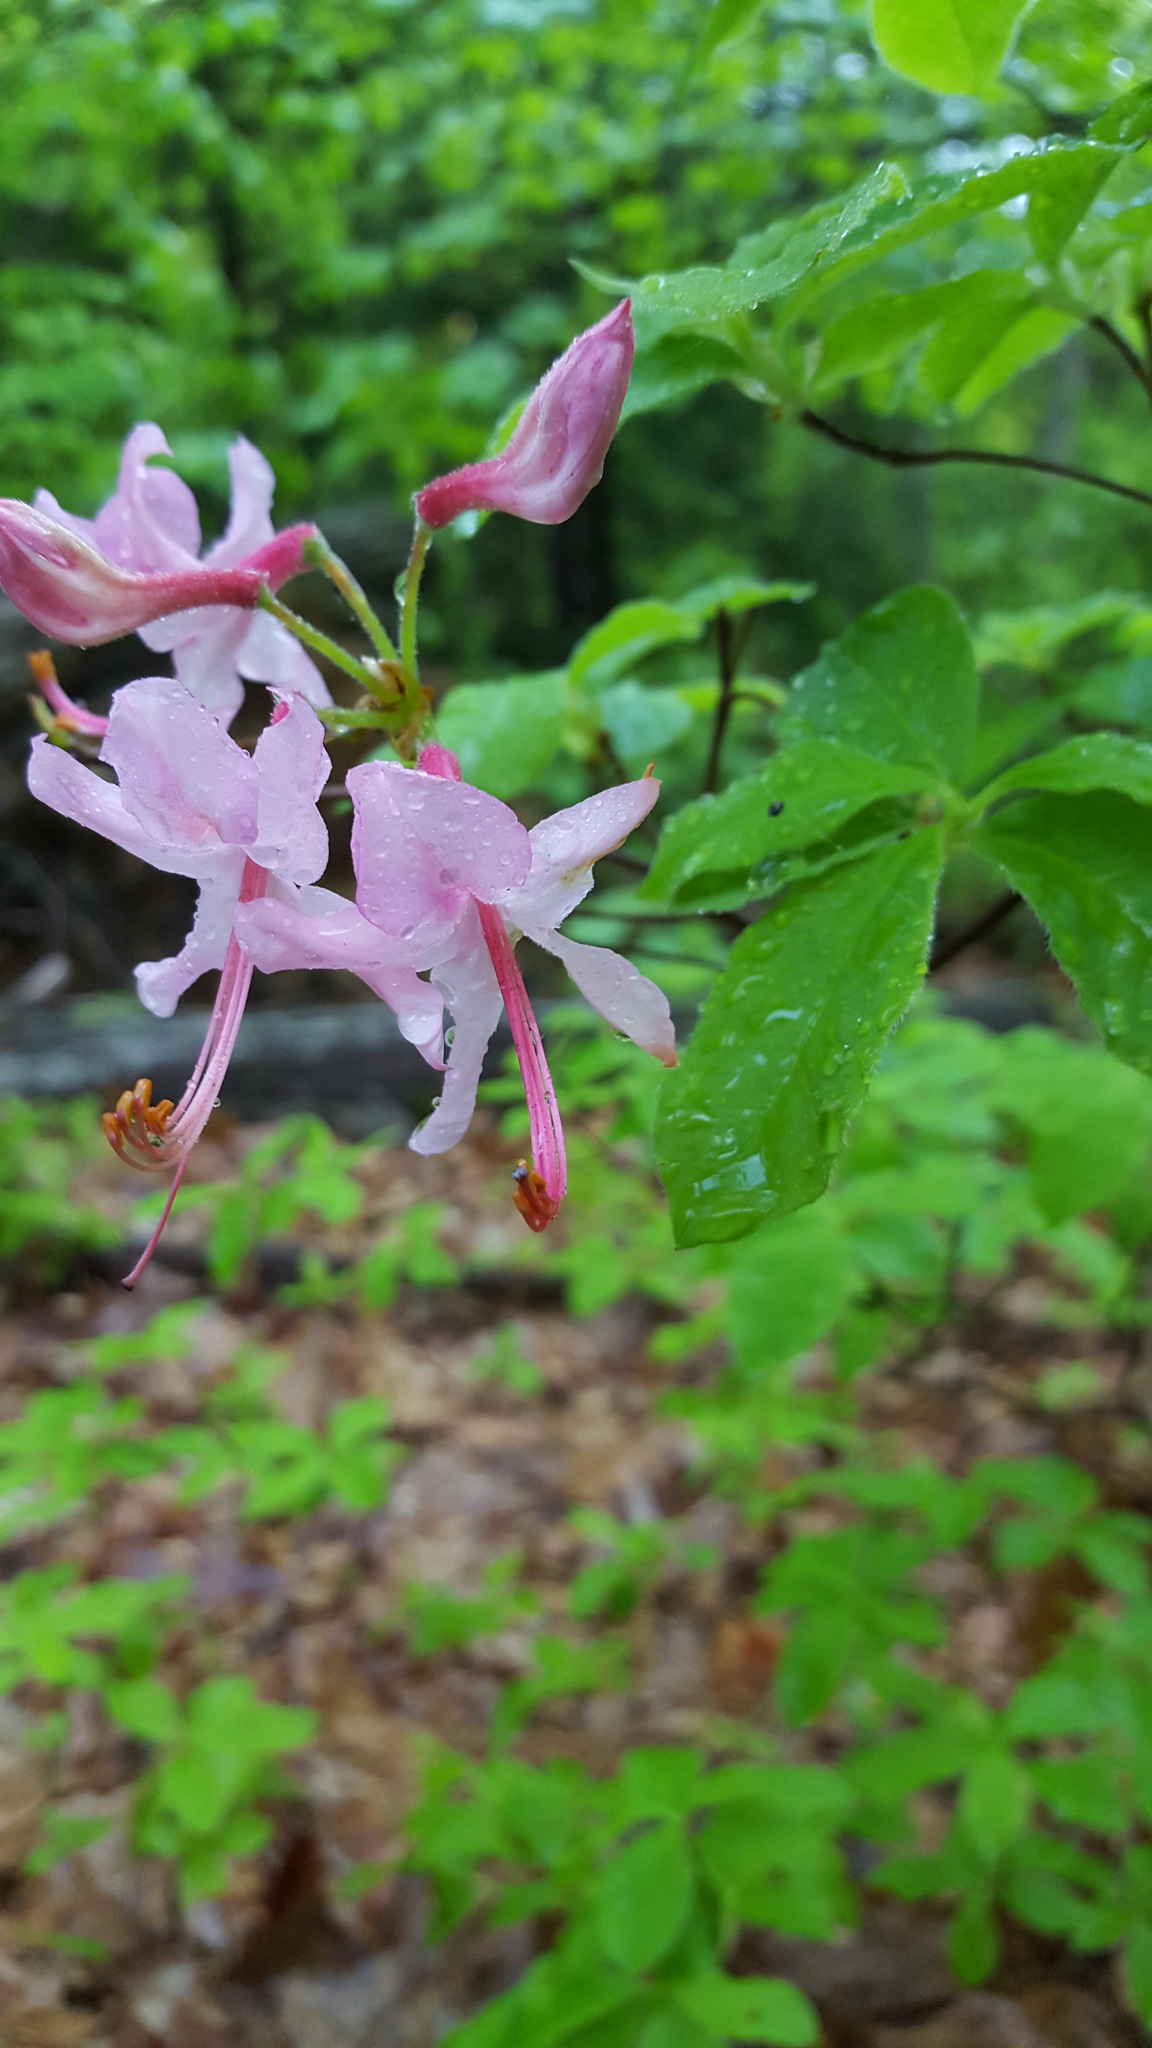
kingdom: Plantae
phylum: Tracheophyta
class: Magnoliopsida
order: Ericales
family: Ericaceae
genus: Rhododendron
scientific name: Rhododendron roseum
